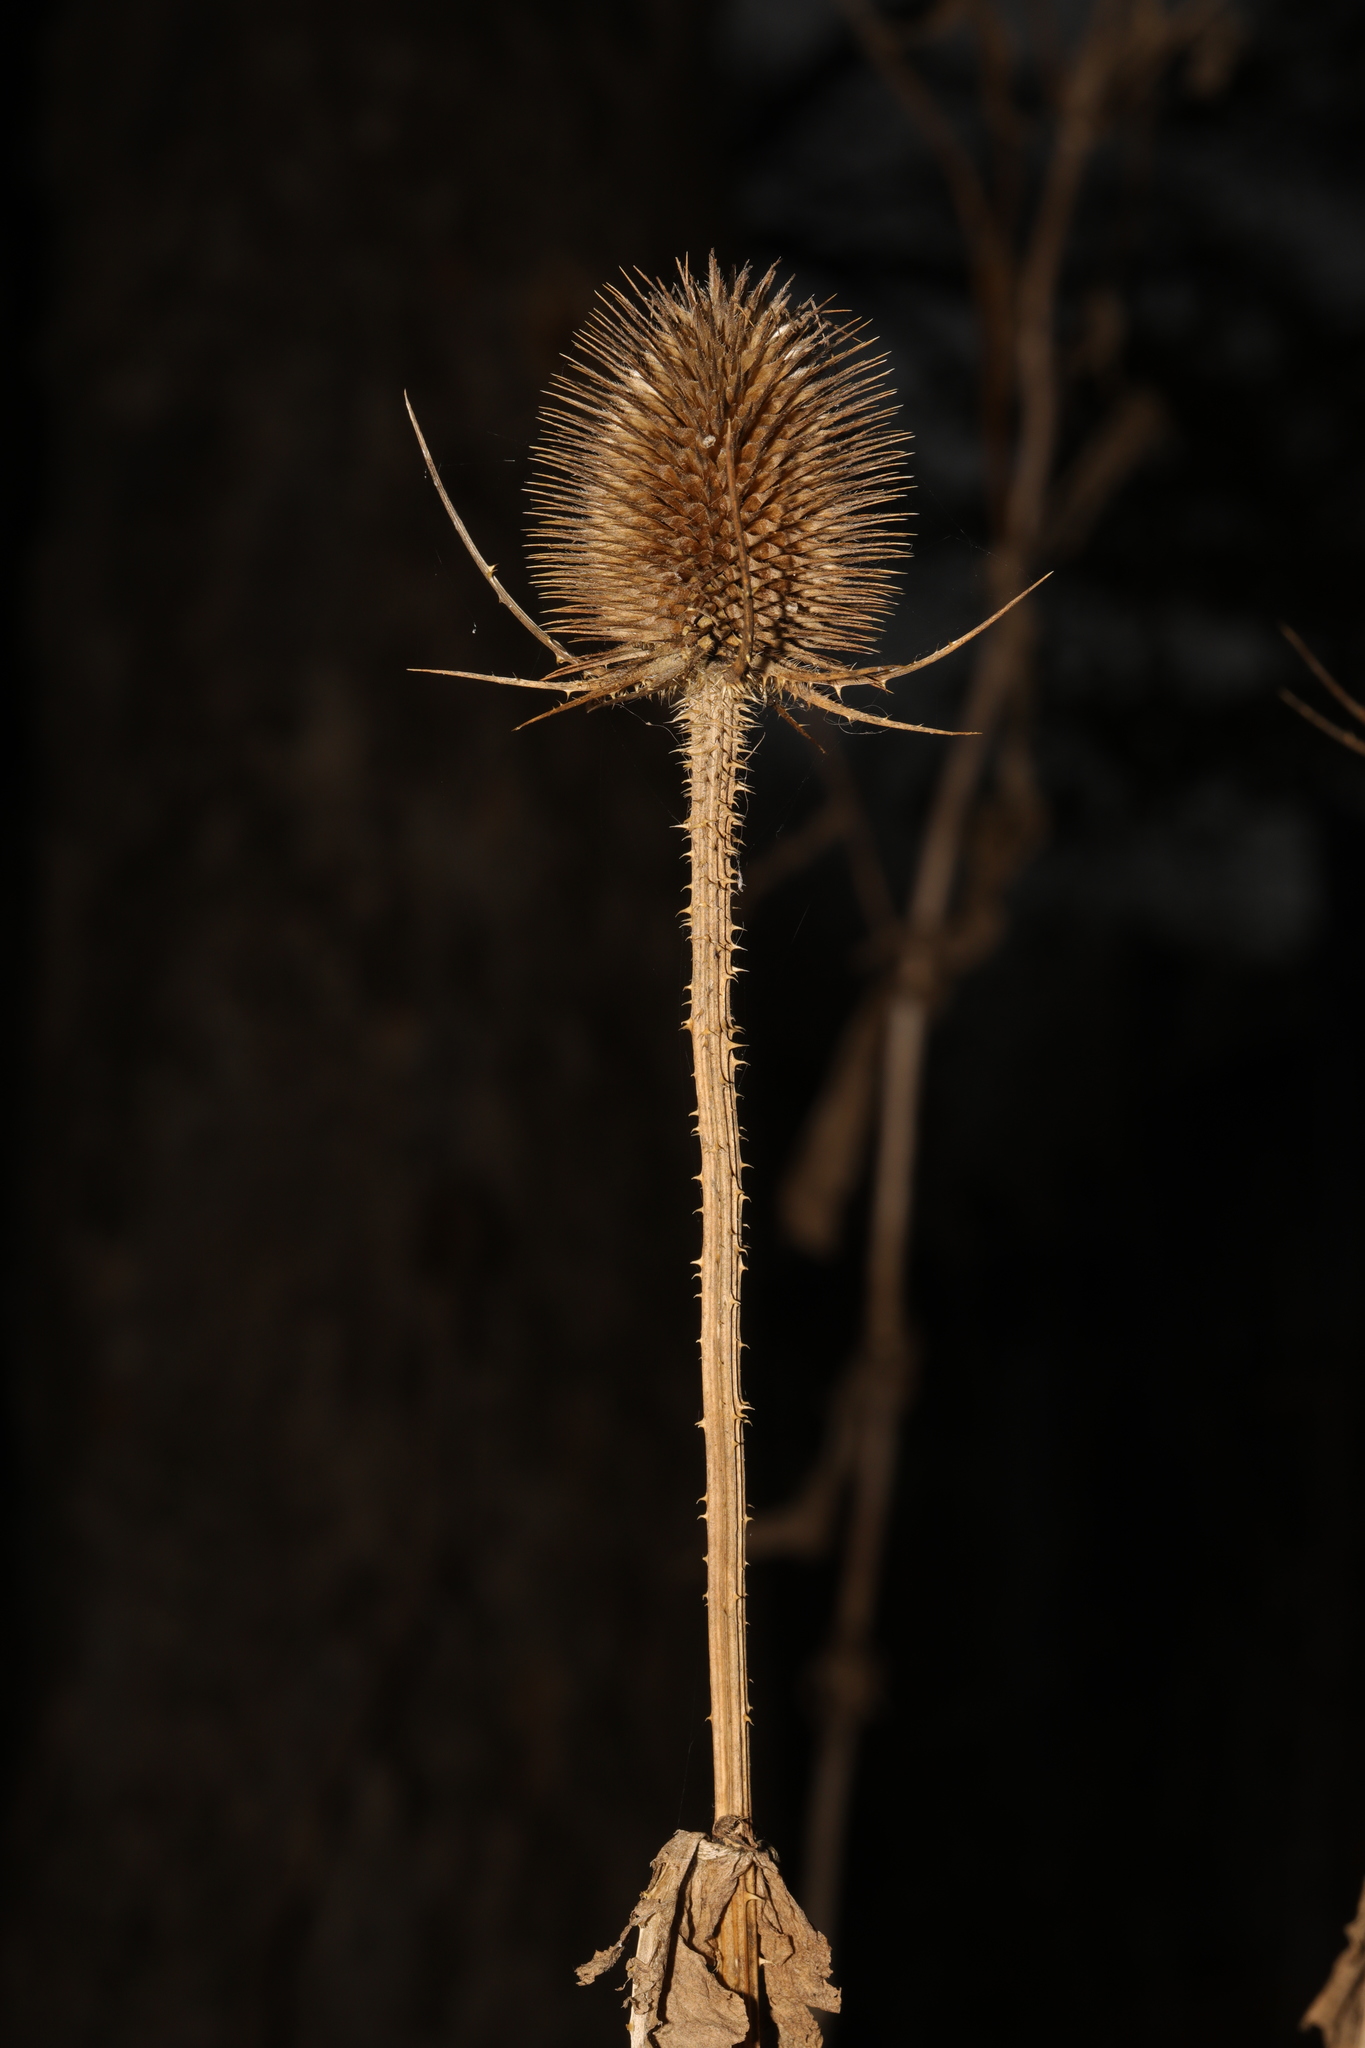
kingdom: Plantae
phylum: Tracheophyta
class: Magnoliopsida
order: Dipsacales
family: Caprifoliaceae
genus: Dipsacus
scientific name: Dipsacus fullonum
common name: Teasel
